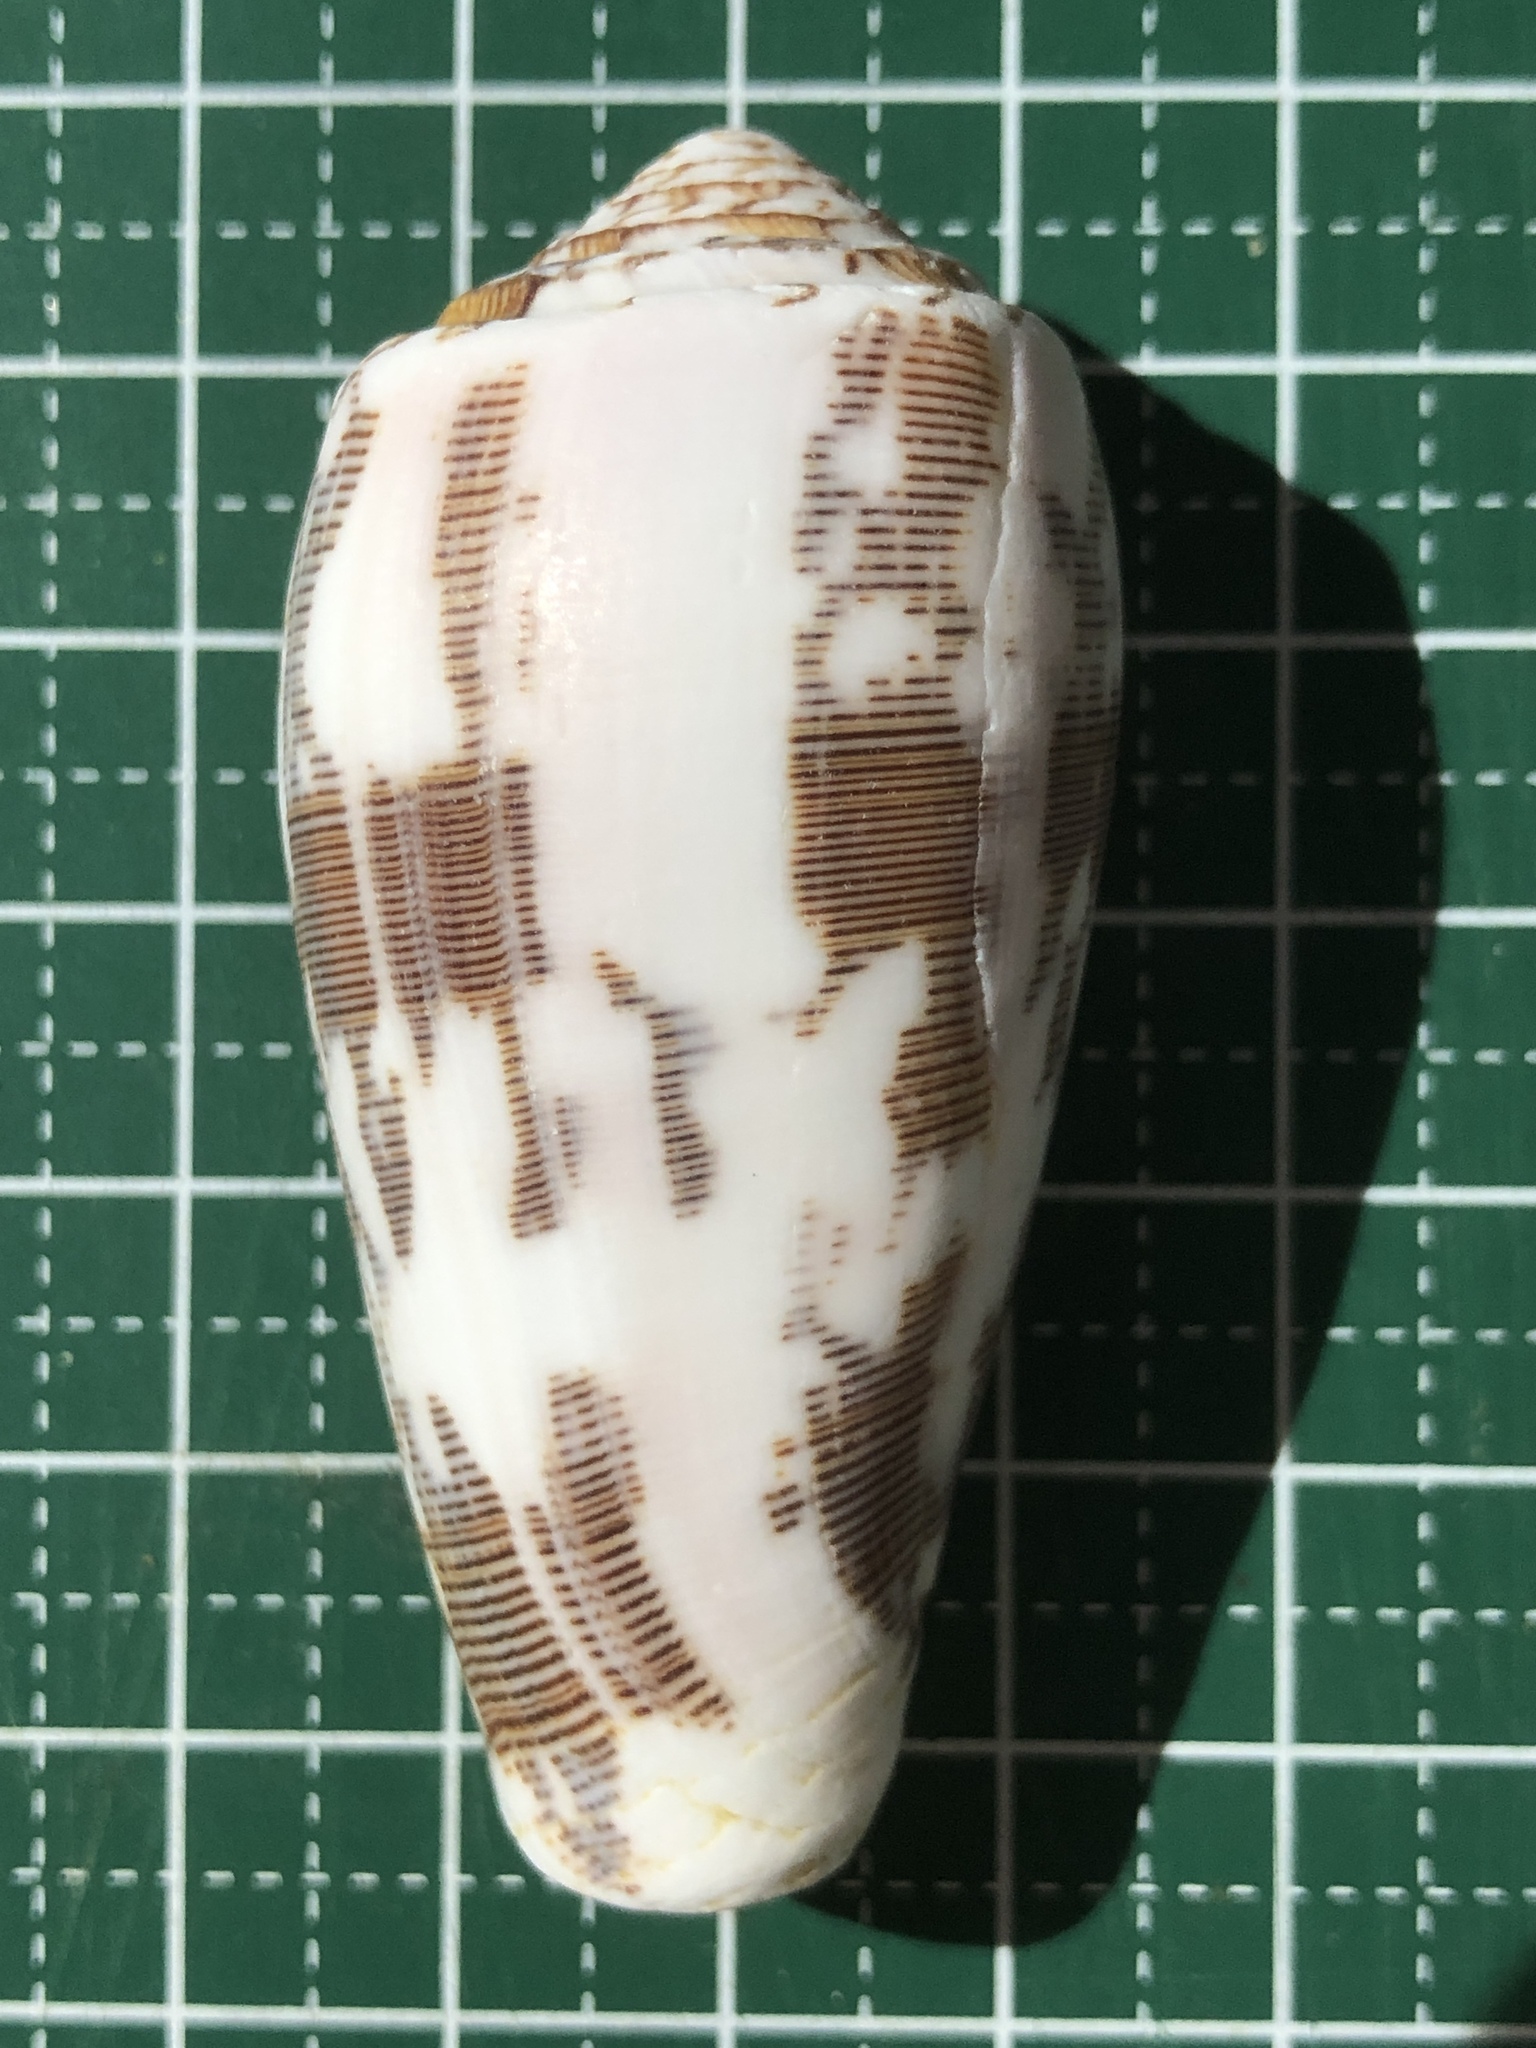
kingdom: Animalia
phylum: Mollusca
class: Gastropoda
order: Neogastropoda
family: Conidae
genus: Conus
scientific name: Conus striatus
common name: Striated cone
